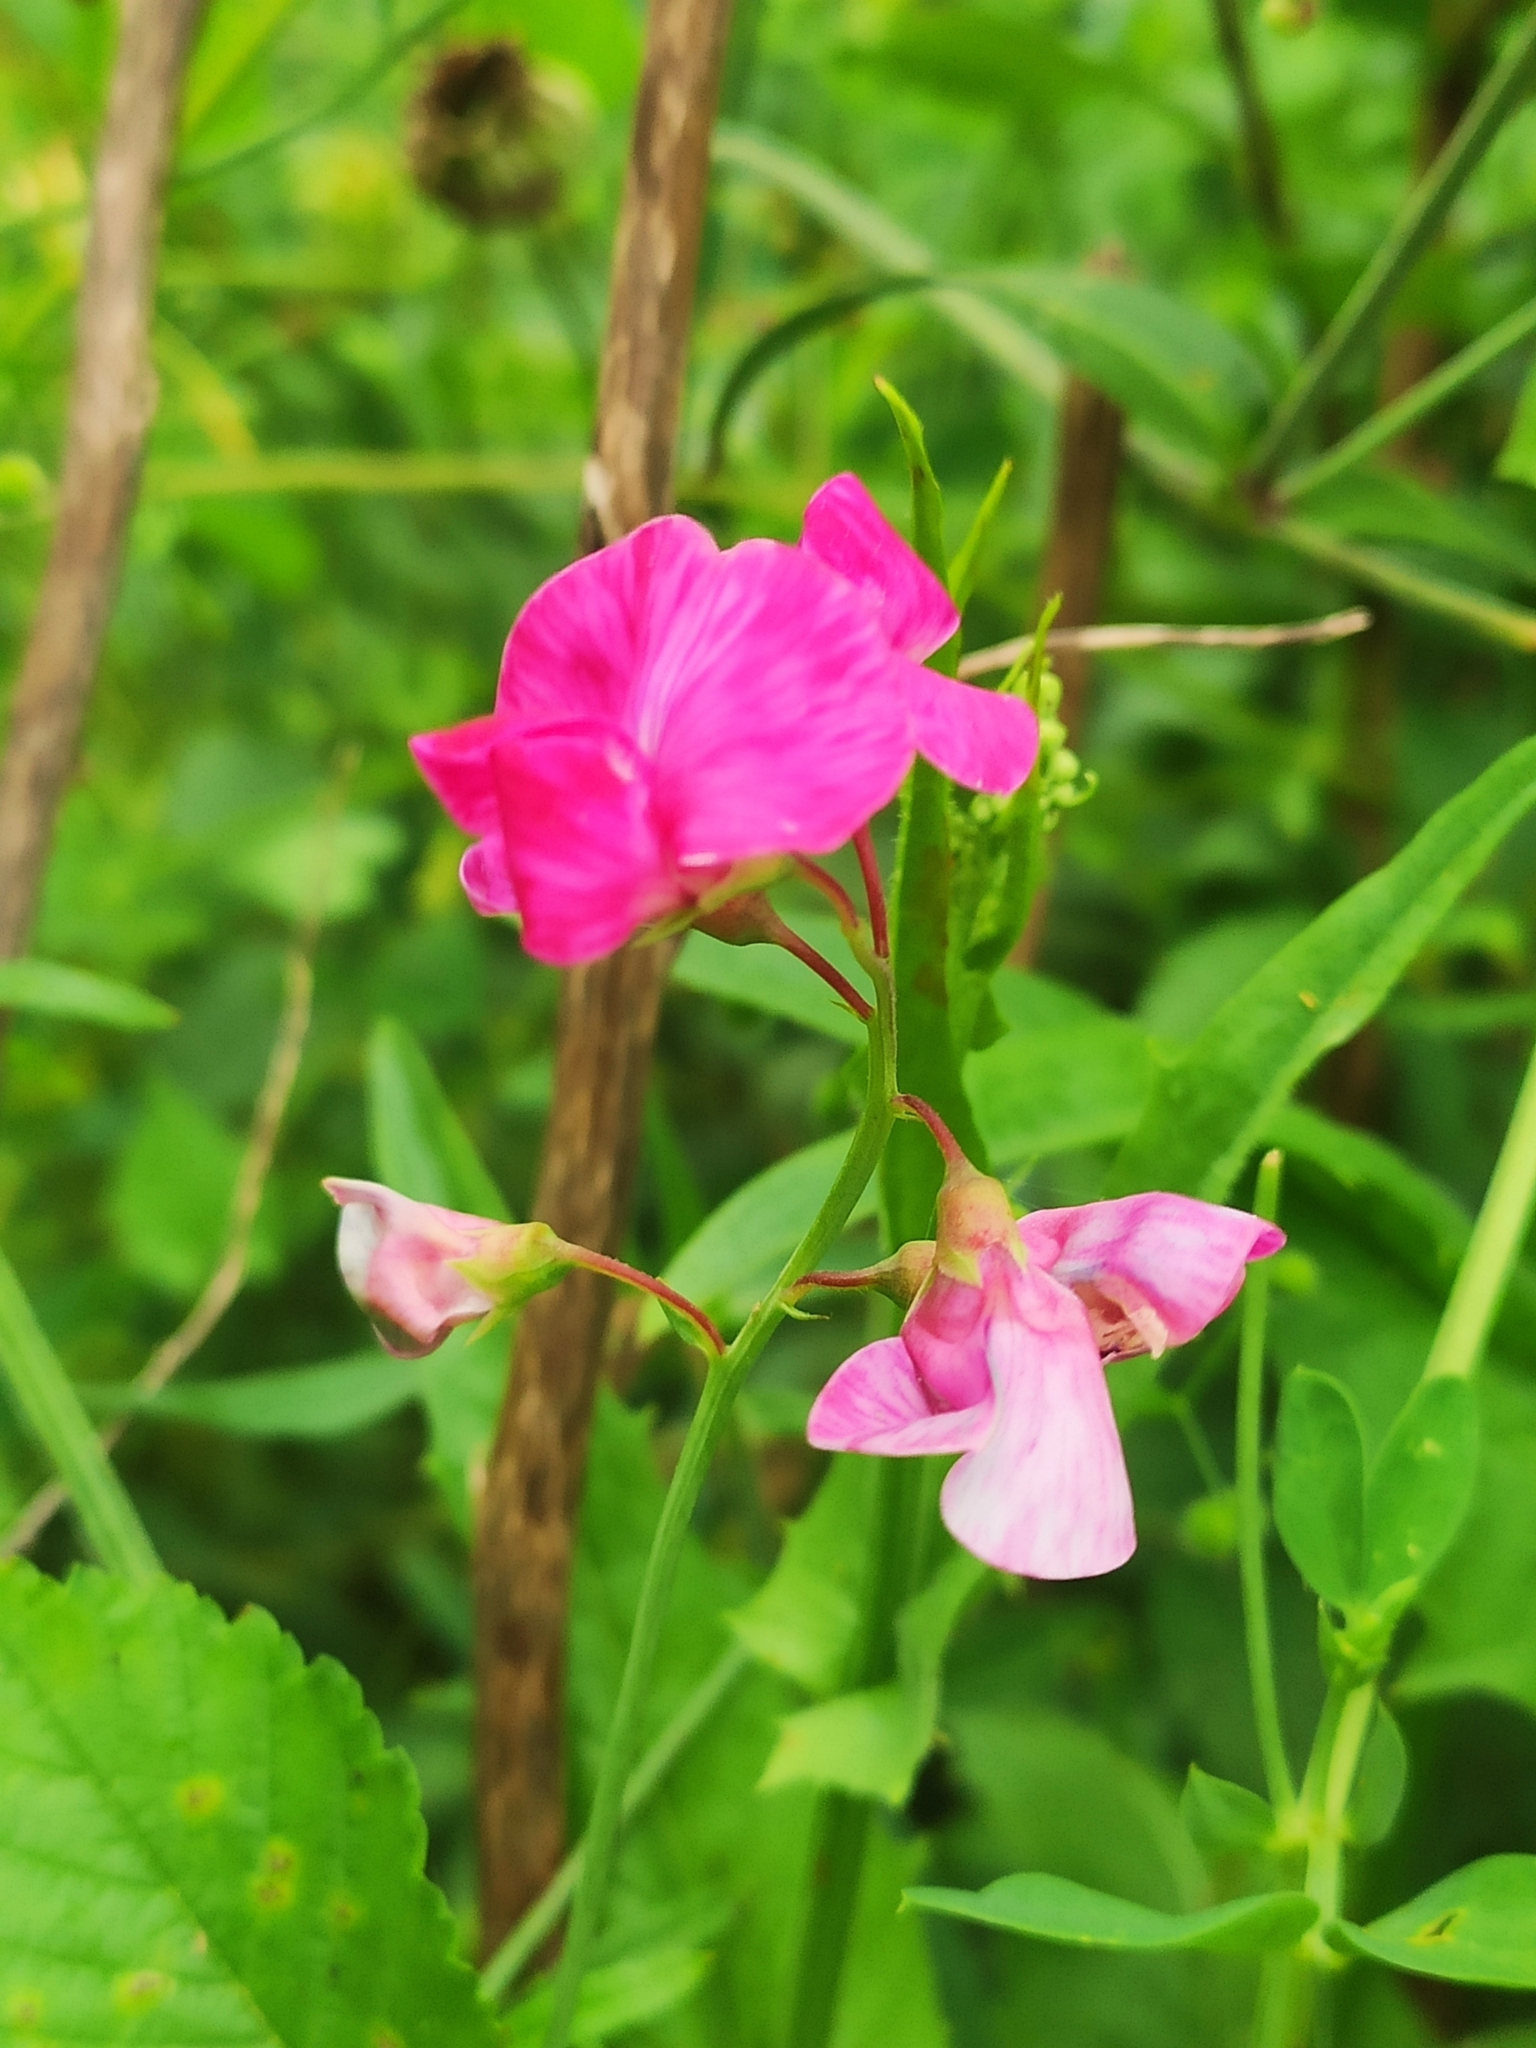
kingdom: Plantae
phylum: Tracheophyta
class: Magnoliopsida
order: Fabales
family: Fabaceae
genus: Lathyrus
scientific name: Lathyrus tuberosus
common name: Tuberous pea
